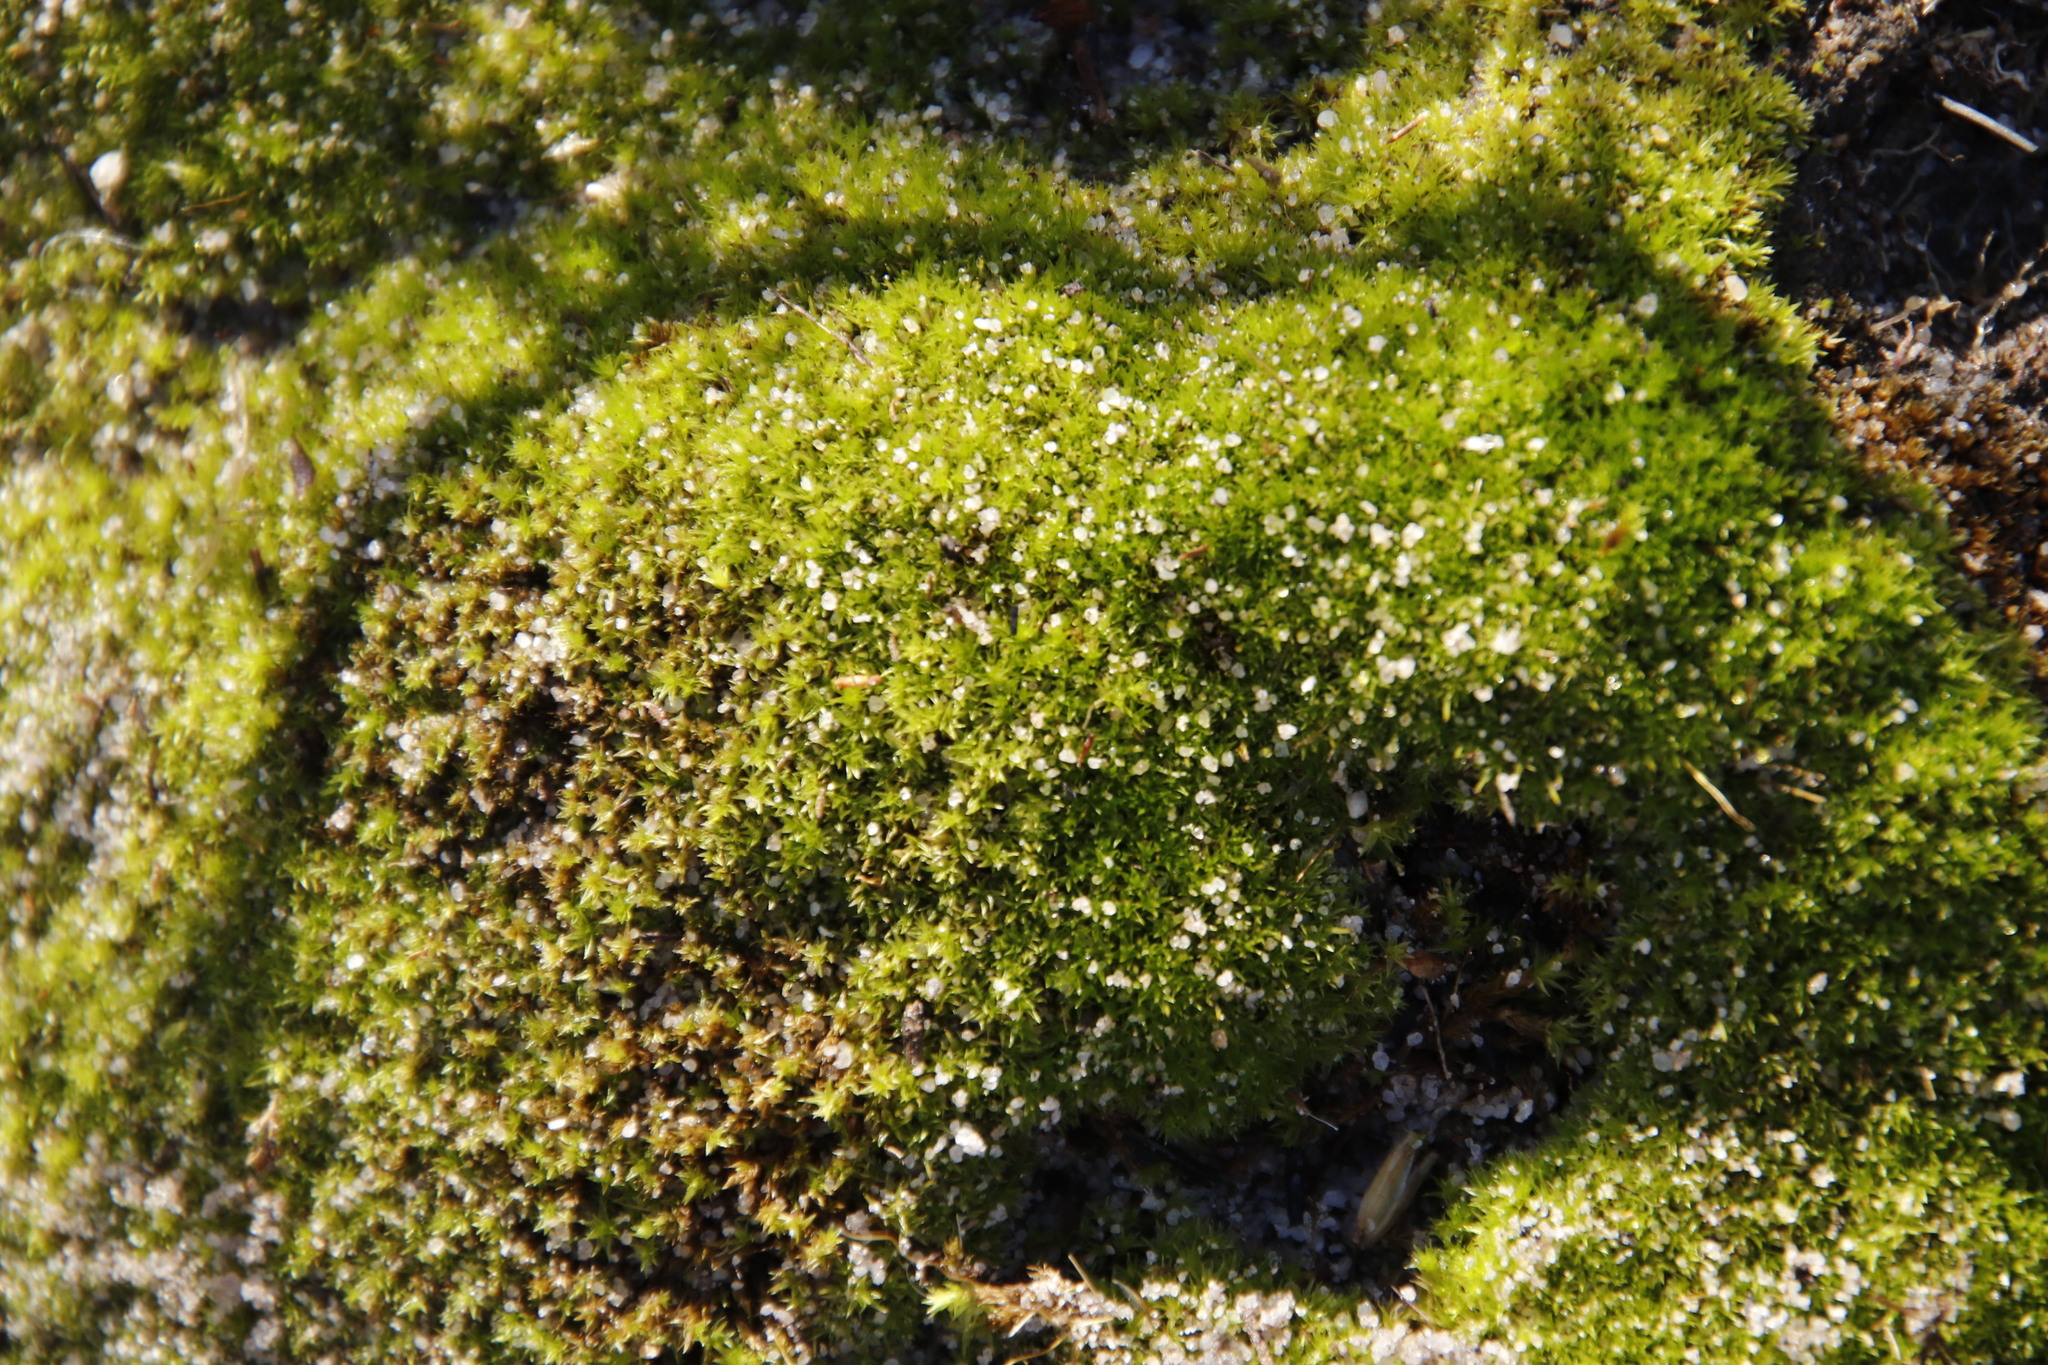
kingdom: Plantae
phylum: Bryophyta
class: Bryopsida
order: Dicranales
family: Ditrichaceae
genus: Ceratodon
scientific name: Ceratodon purpureus
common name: Redshank
